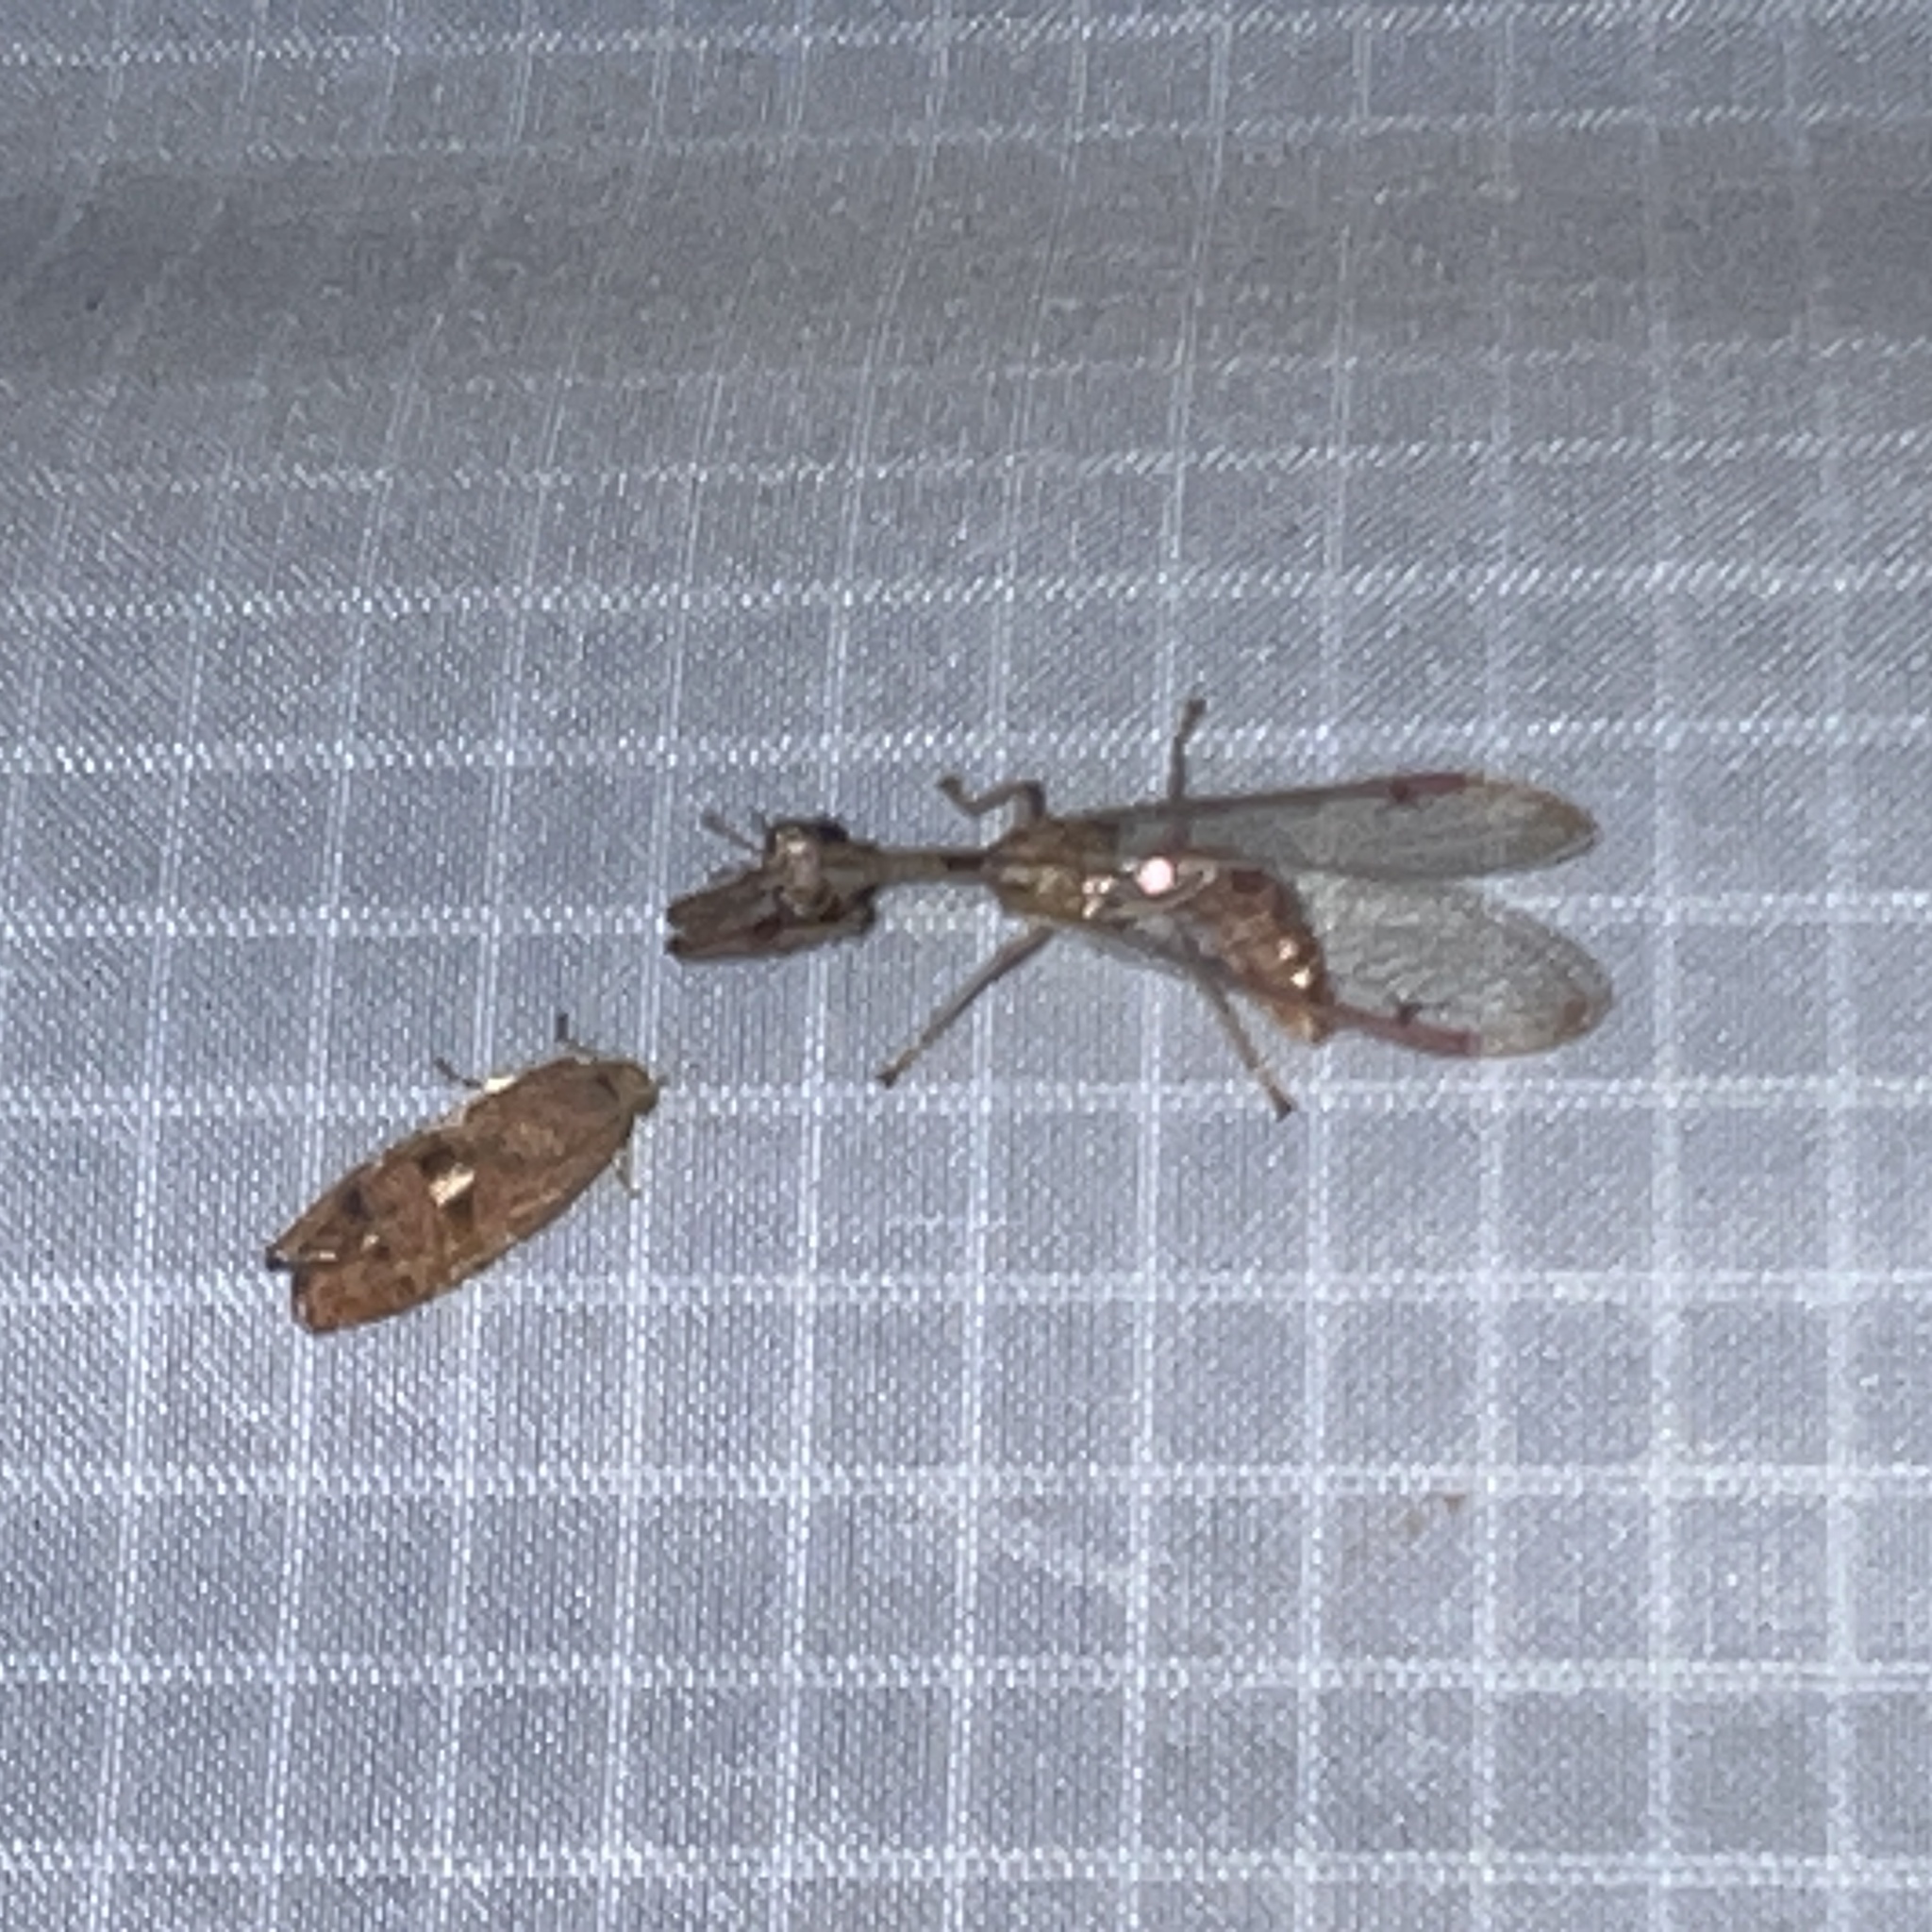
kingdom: Animalia
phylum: Arthropoda
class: Insecta
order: Neuroptera
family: Mantispidae
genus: Dicromantispa
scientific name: Dicromantispa interrupta
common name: Four-spotted mantidfly
